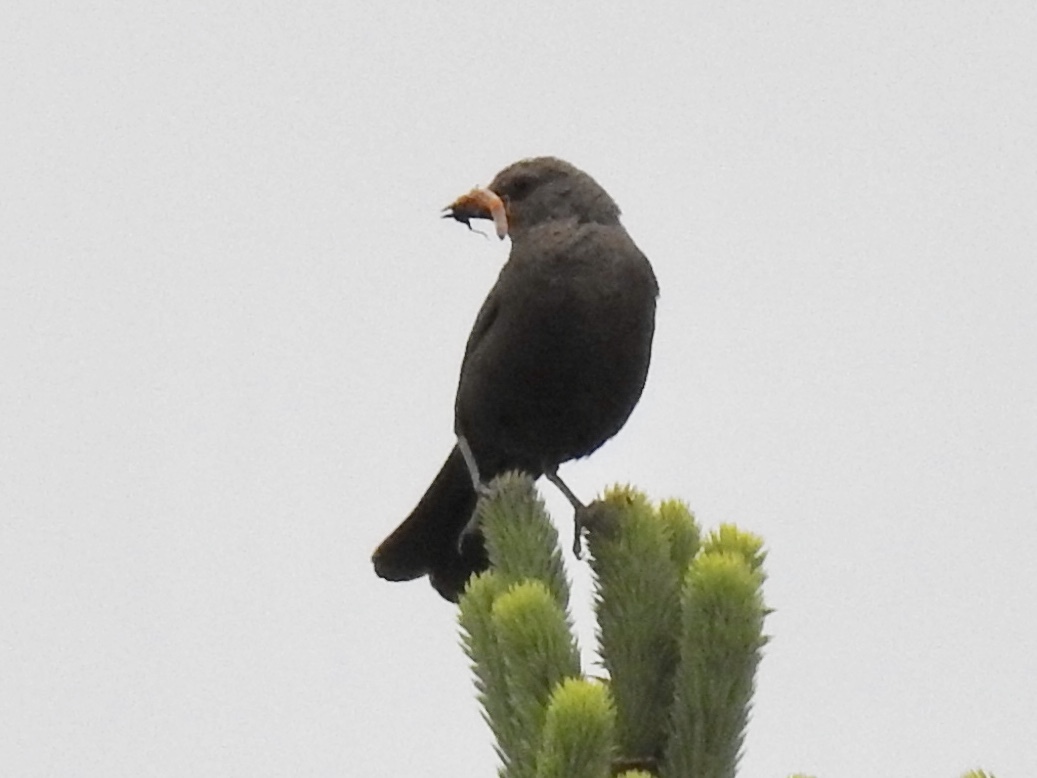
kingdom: Animalia
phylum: Chordata
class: Aves
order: Passeriformes
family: Icteridae
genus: Euphagus
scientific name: Euphagus cyanocephalus
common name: Brewer's blackbird
